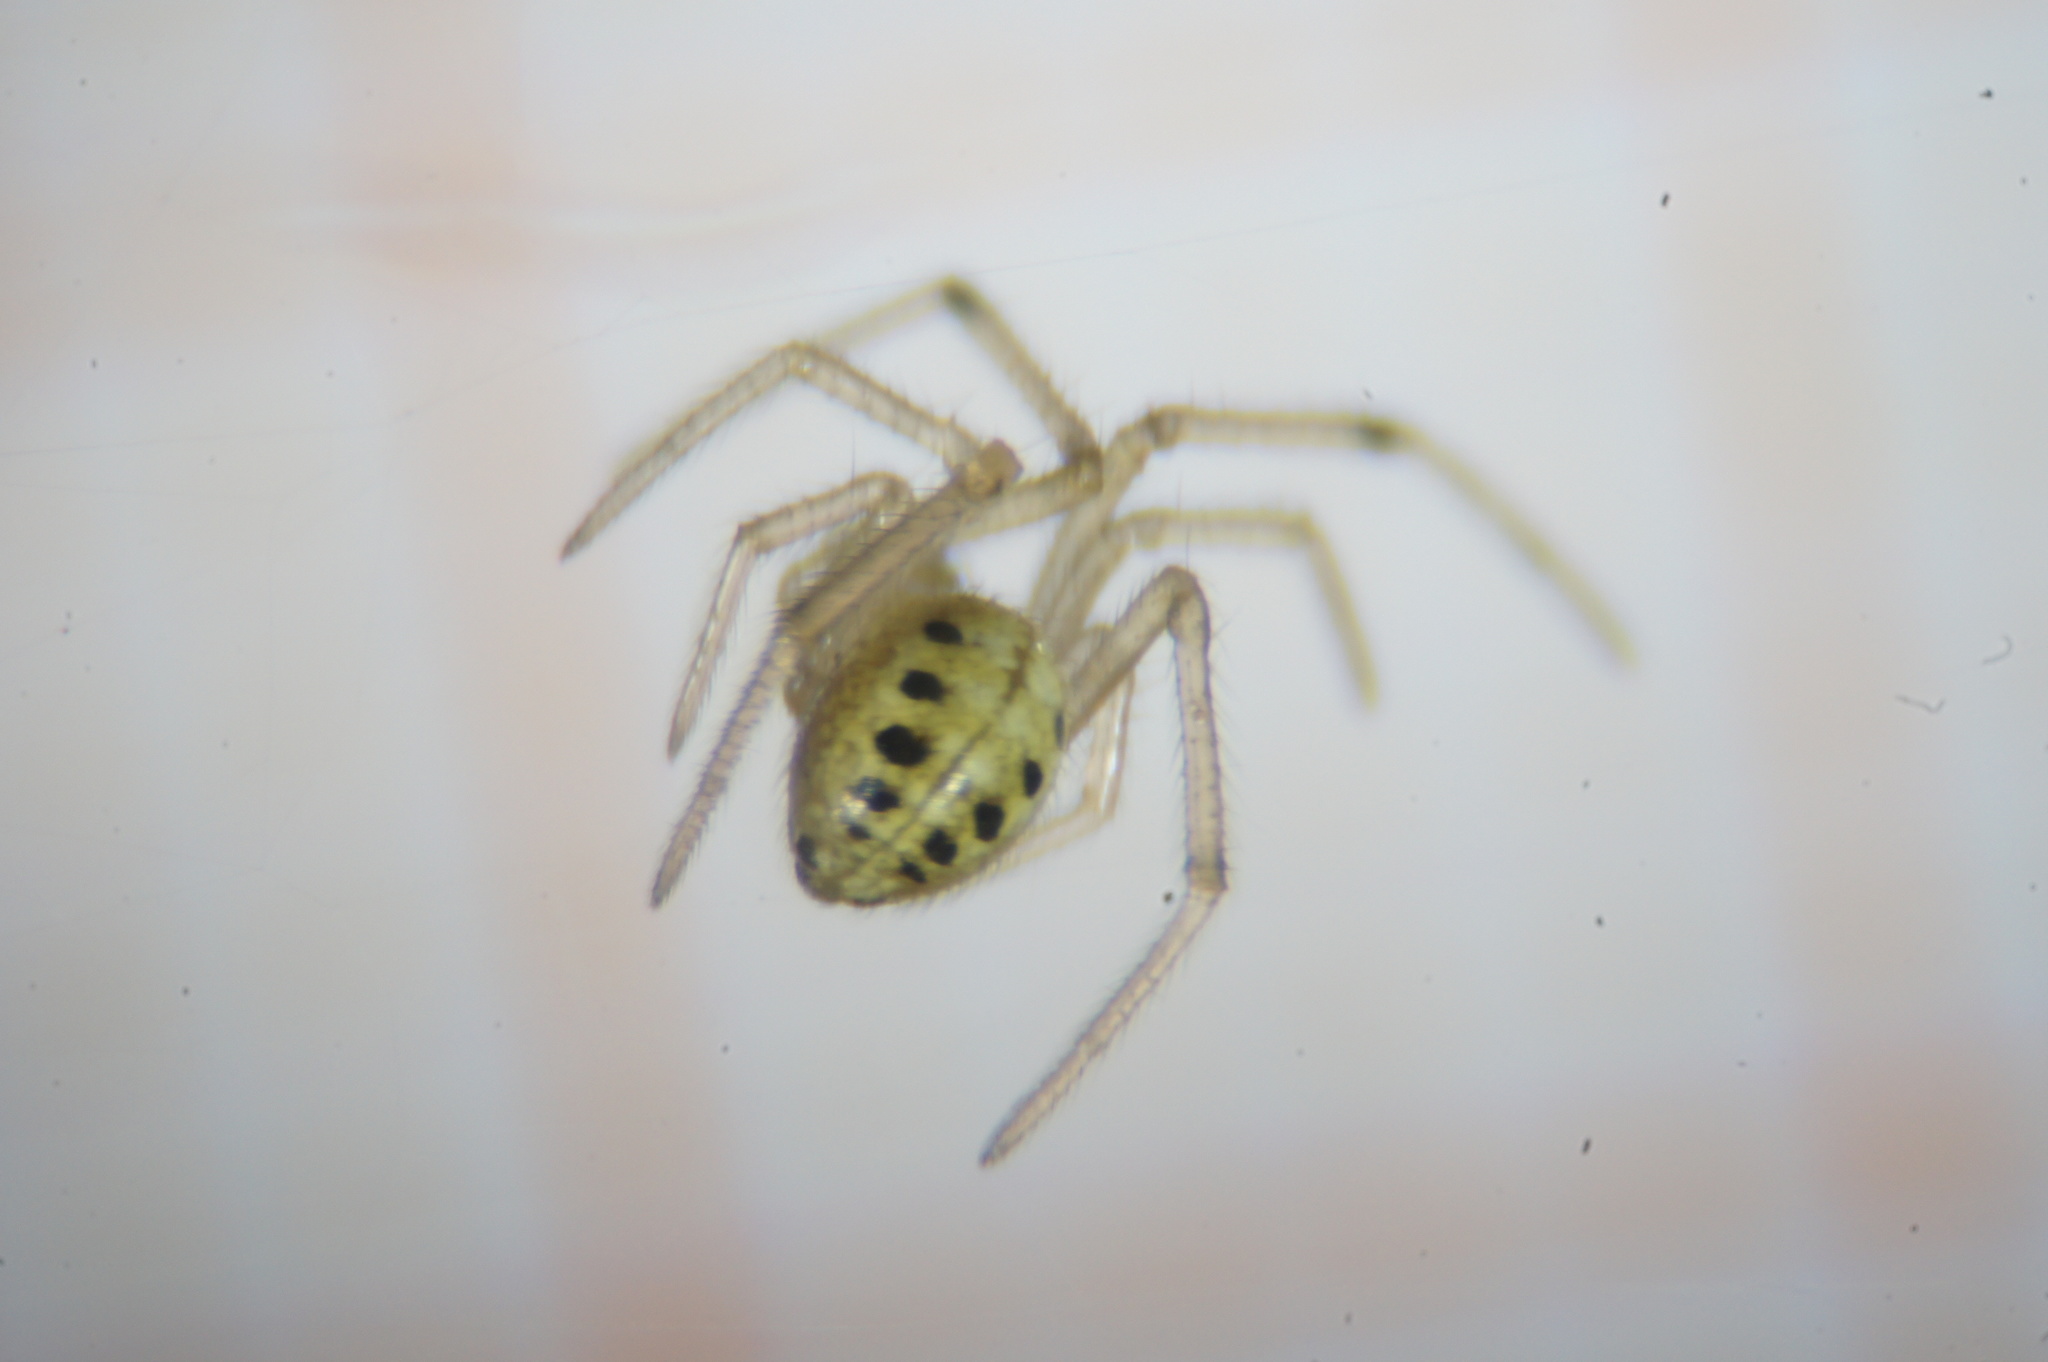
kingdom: Animalia
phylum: Arthropoda
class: Arachnida
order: Araneae
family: Theridiidae
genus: Enoplognatha
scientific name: Enoplognatha
